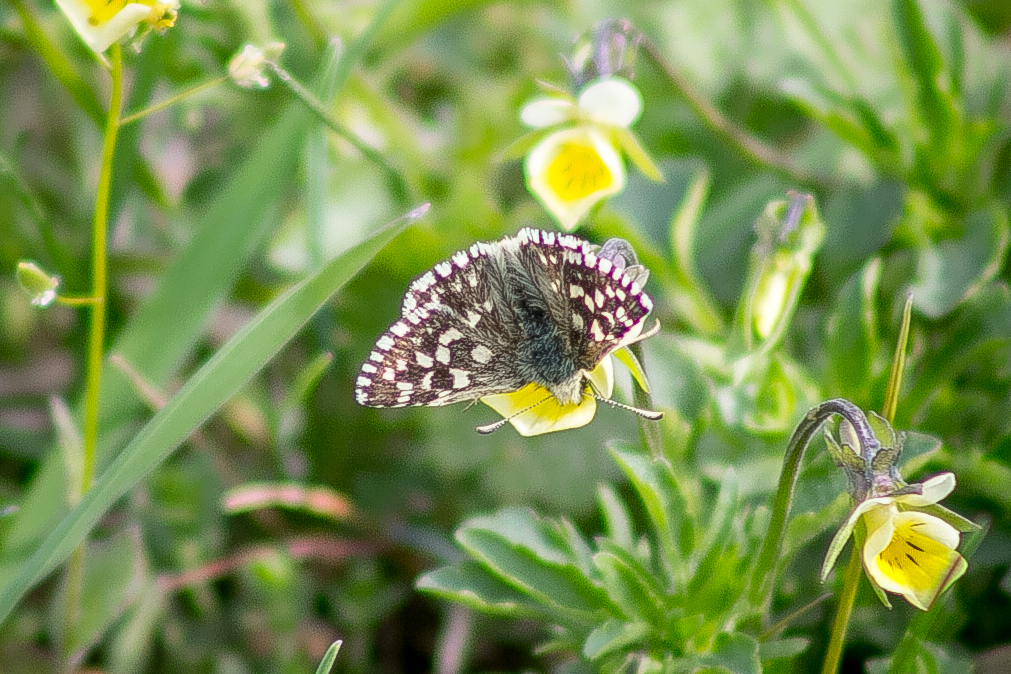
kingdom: Animalia
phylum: Arthropoda
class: Insecta
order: Lepidoptera
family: Hesperiidae
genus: Pyrgus
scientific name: Pyrgus malvae
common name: Grizzled skipper
